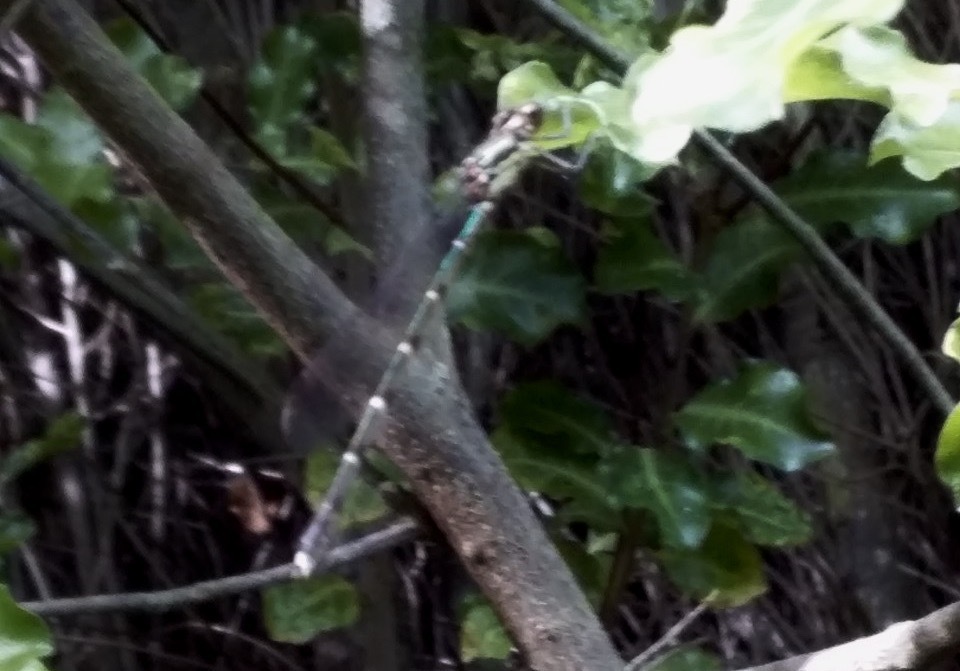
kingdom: Animalia
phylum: Arthropoda
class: Insecta
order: Odonata
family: Lestidae
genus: Austrolestes
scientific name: Austrolestes colensonis
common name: Blue damselfly
